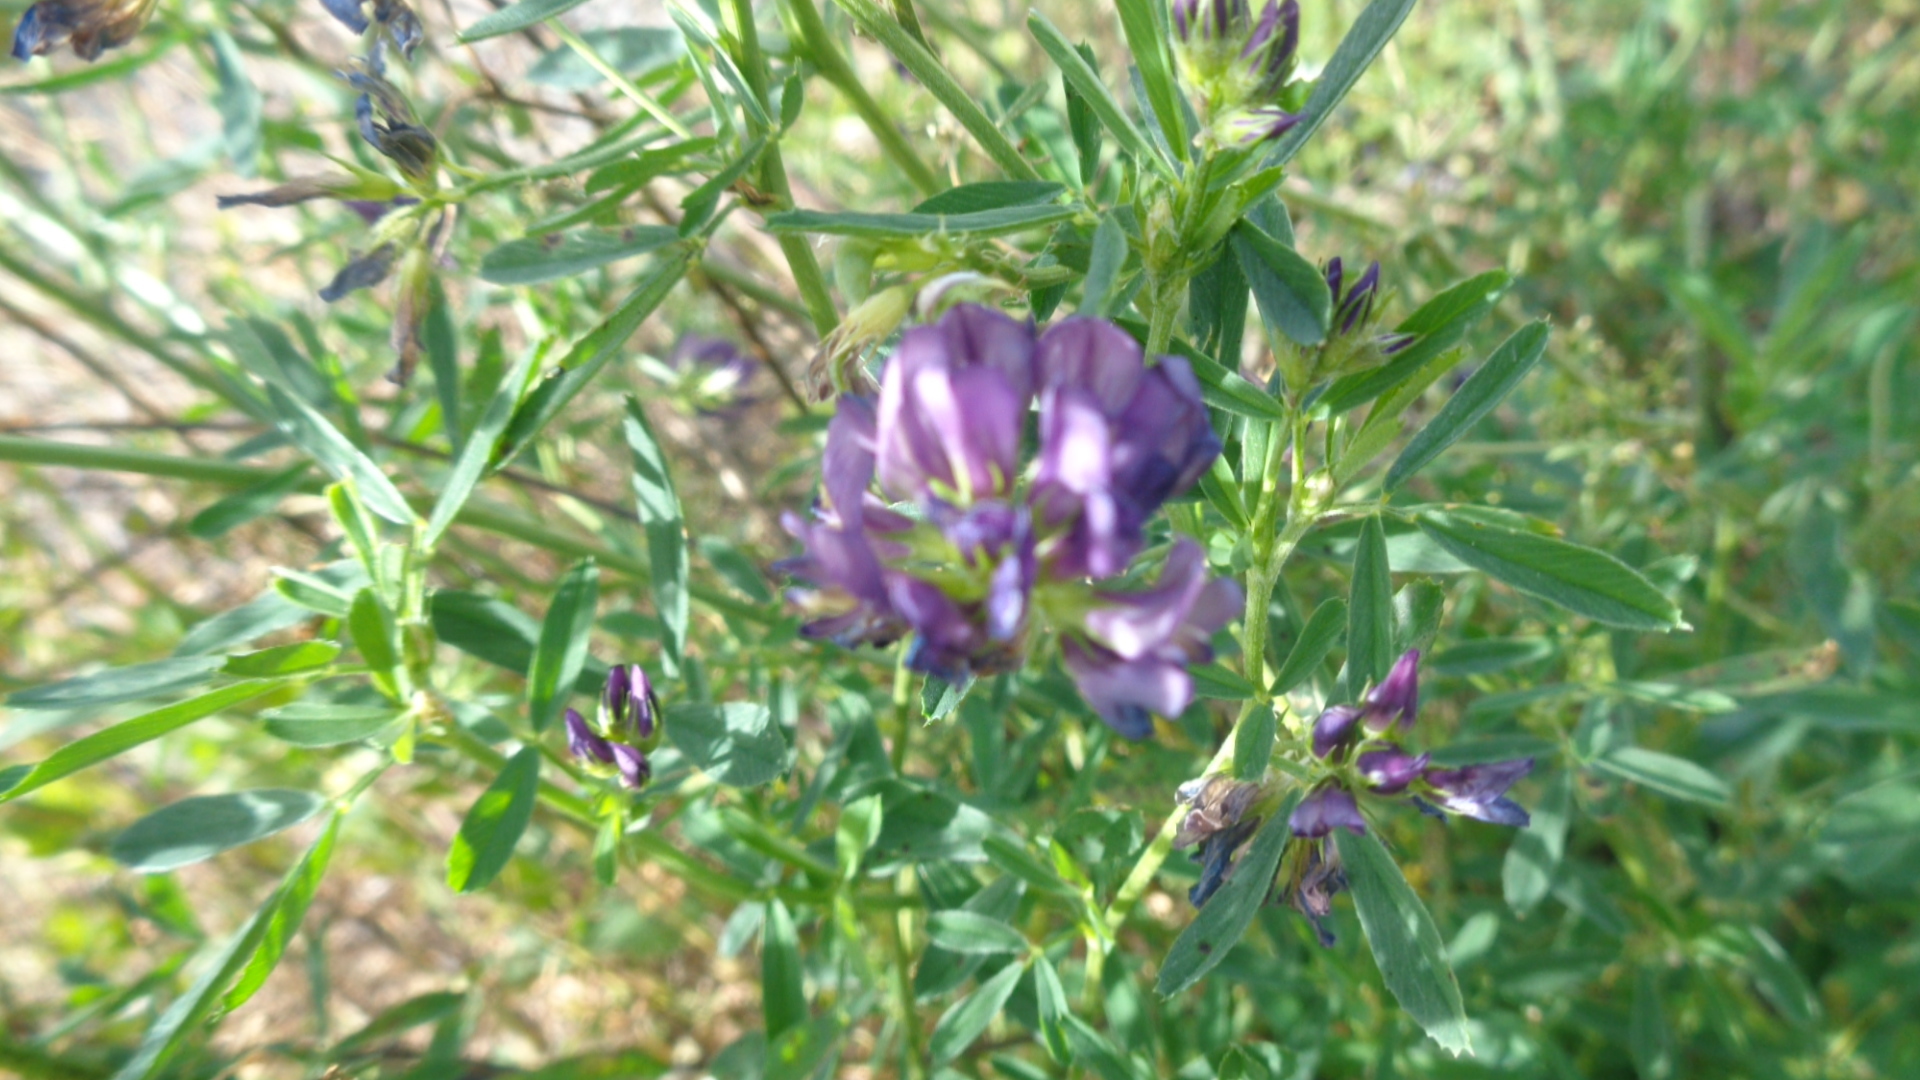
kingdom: Plantae
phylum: Tracheophyta
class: Magnoliopsida
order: Fabales
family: Fabaceae
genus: Medicago
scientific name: Medicago sativa
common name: Alfalfa
